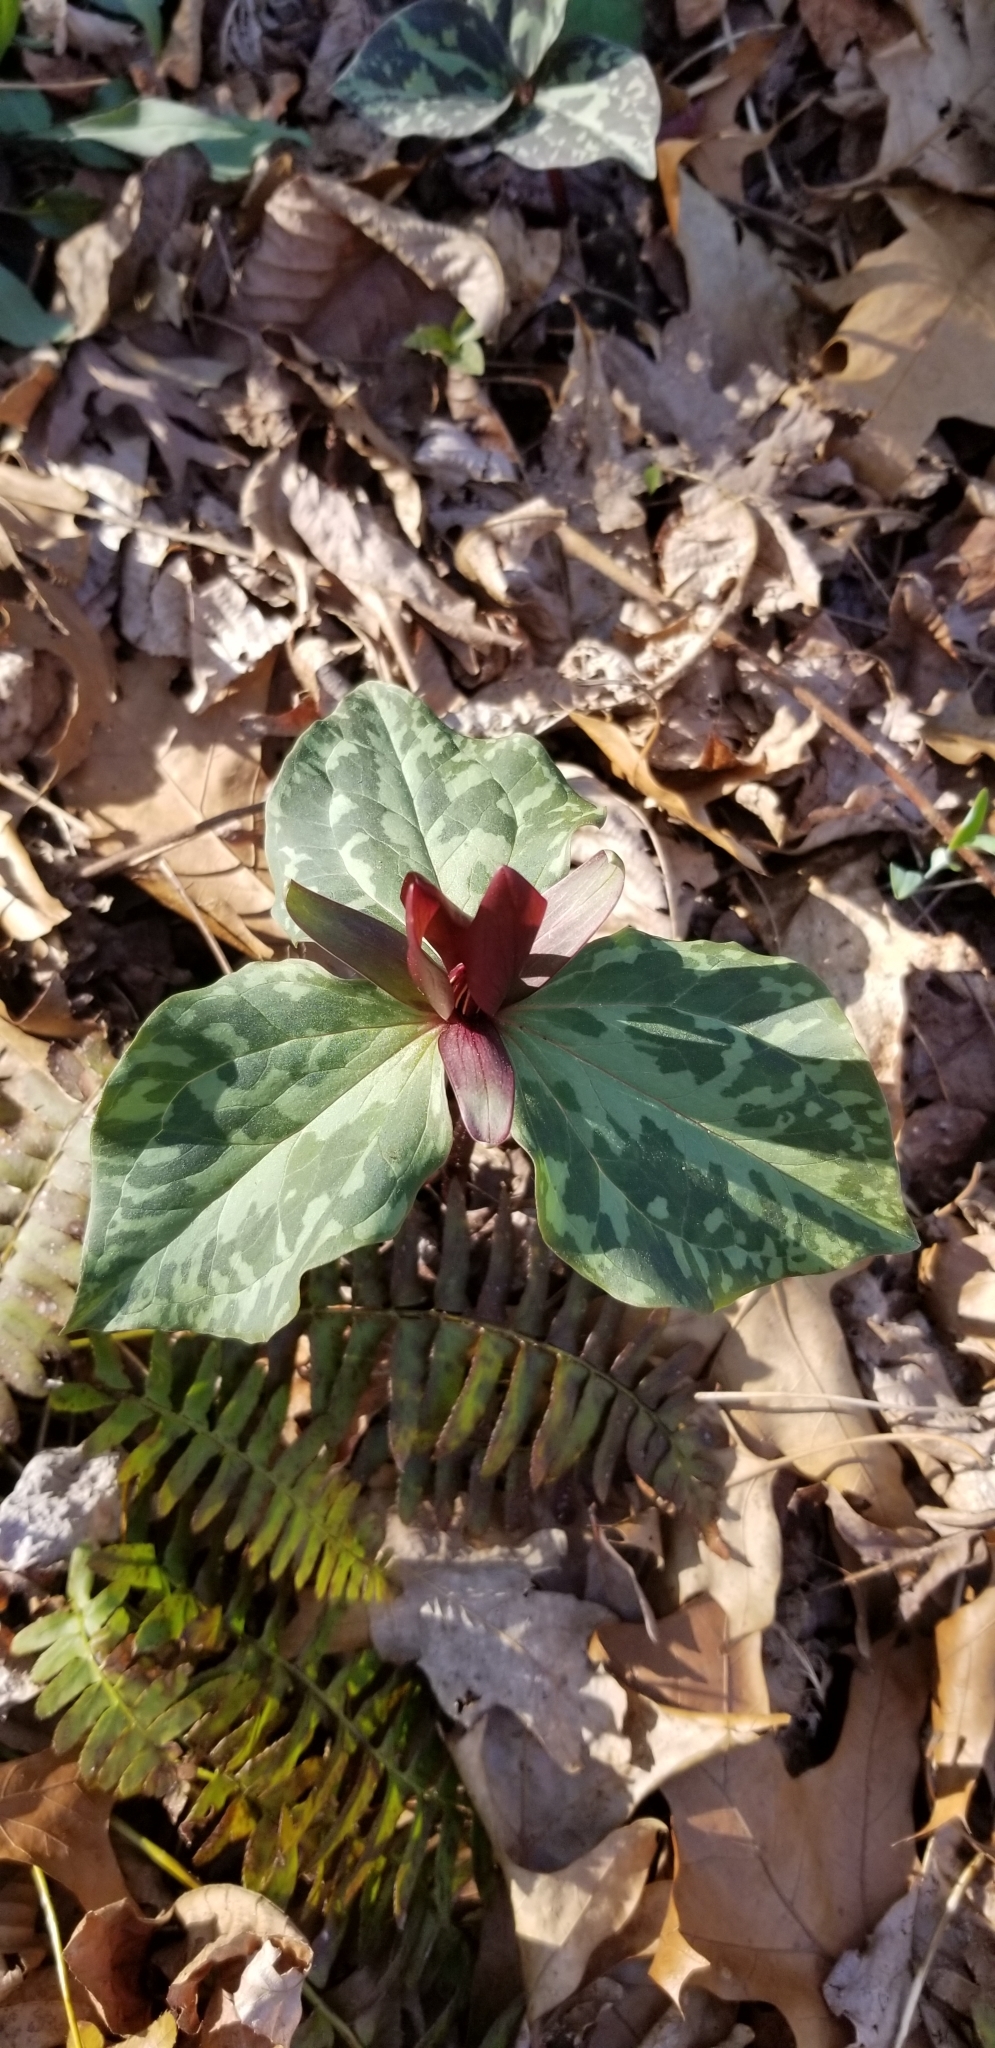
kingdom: Plantae
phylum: Tracheophyta
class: Liliopsida
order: Liliales
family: Melanthiaceae
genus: Trillium
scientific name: Trillium cuneatum
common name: Cuneate trillium
